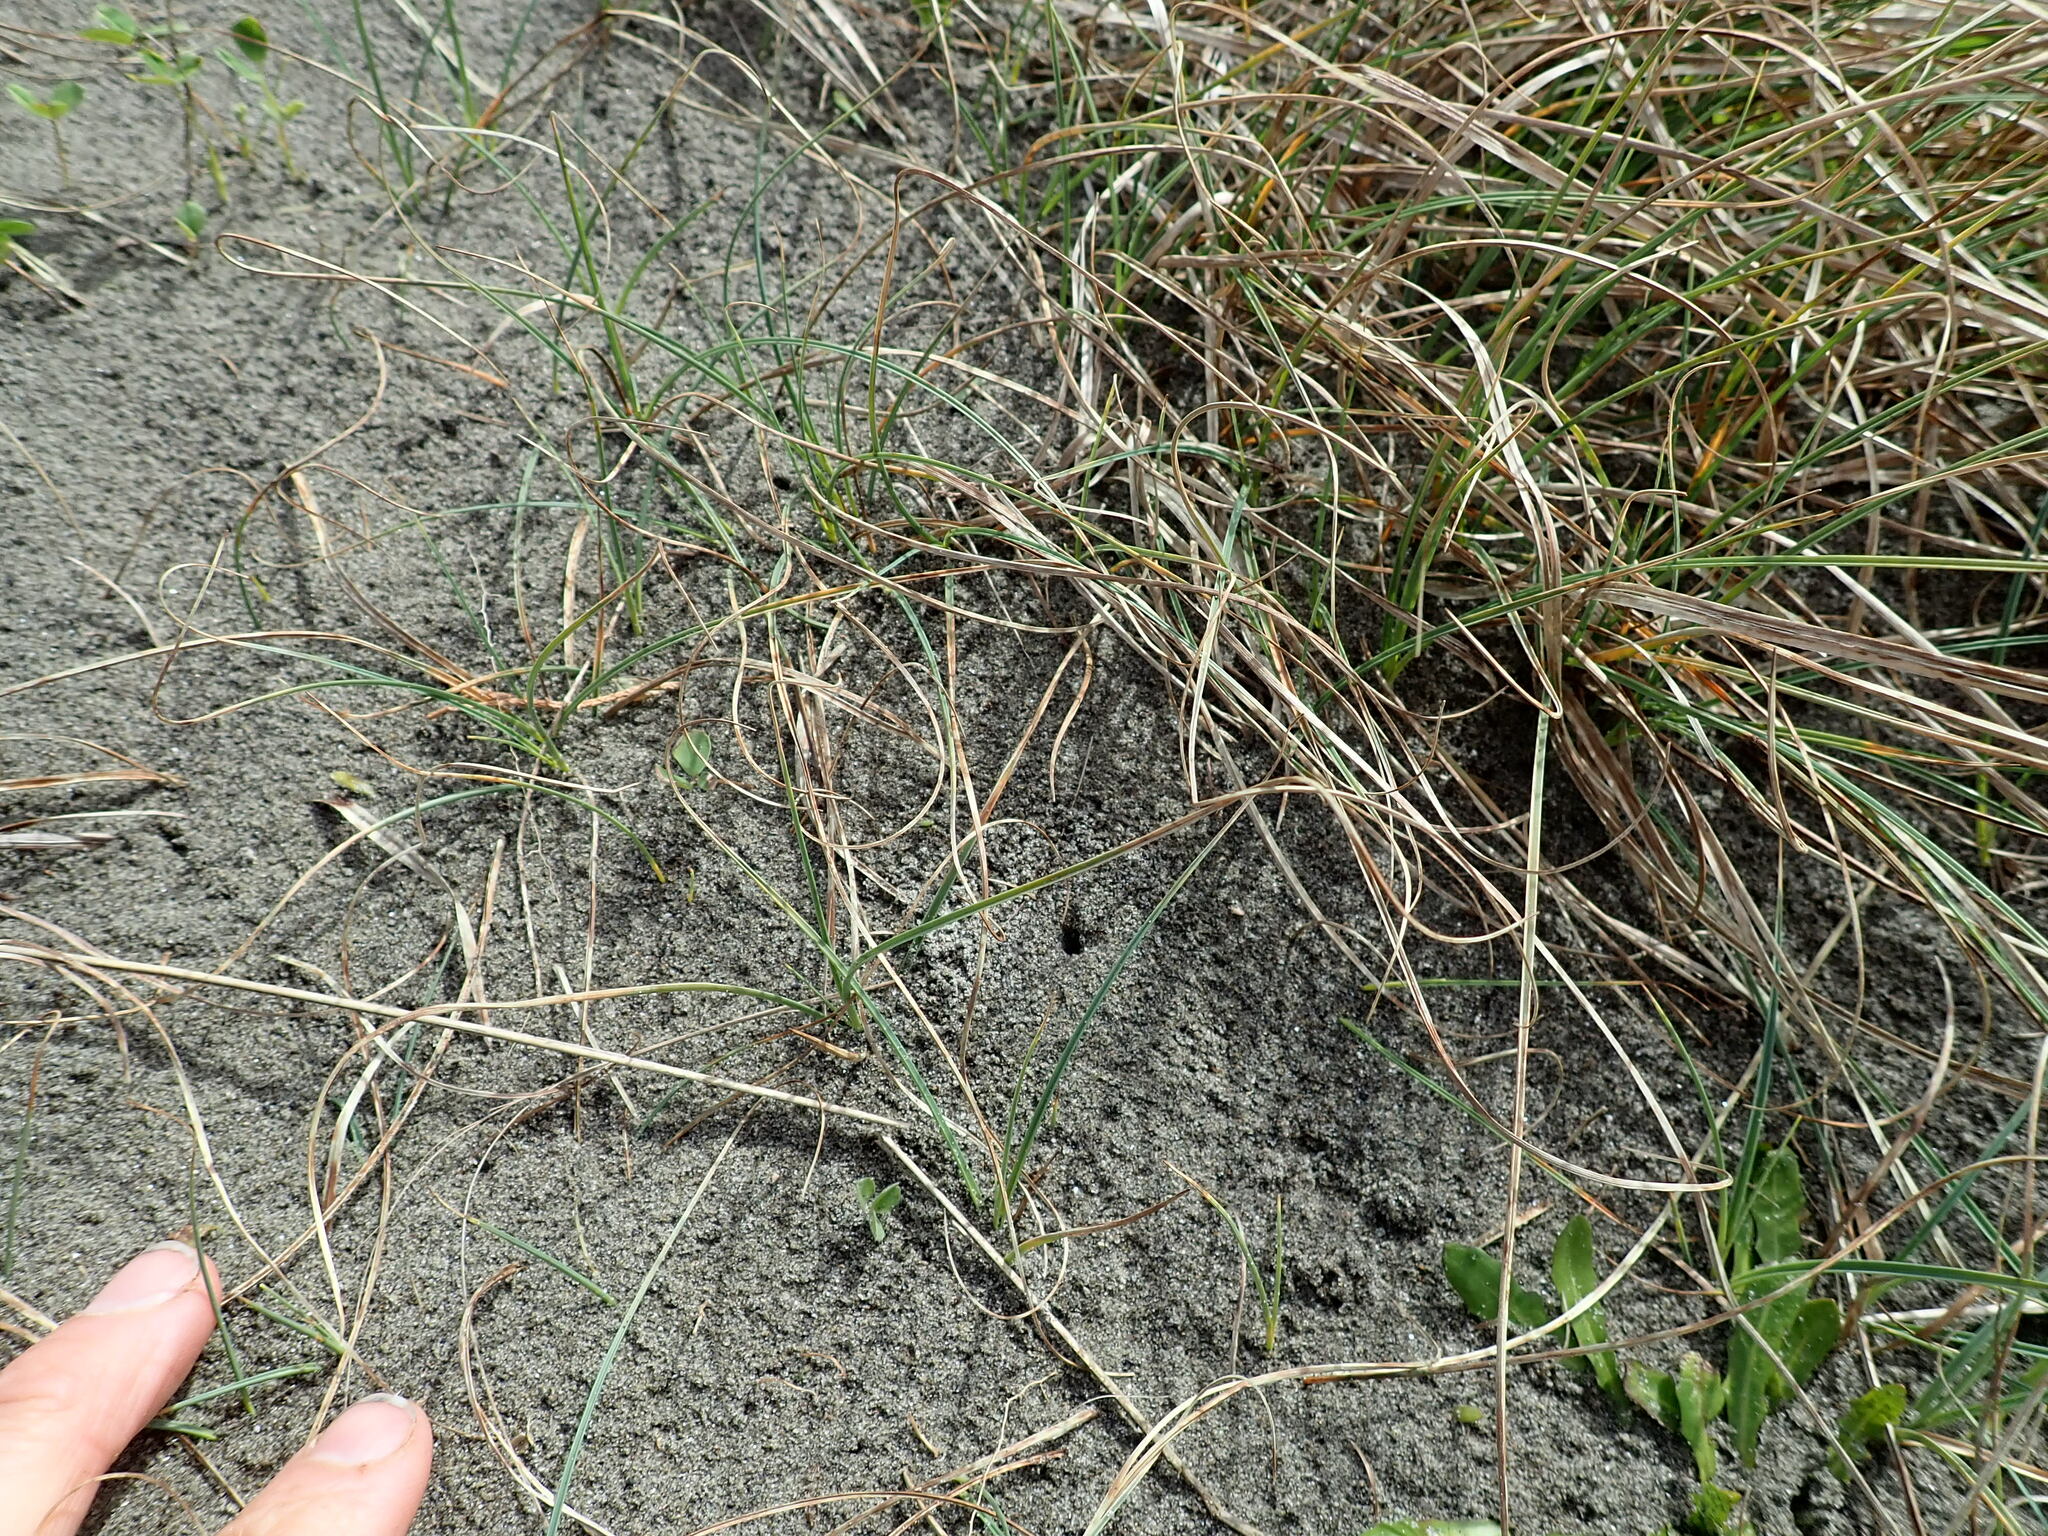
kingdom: Plantae
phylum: Tracheophyta
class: Liliopsida
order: Poales
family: Cyperaceae
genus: Carex
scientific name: Carex pumila
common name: Dwarf sedge
